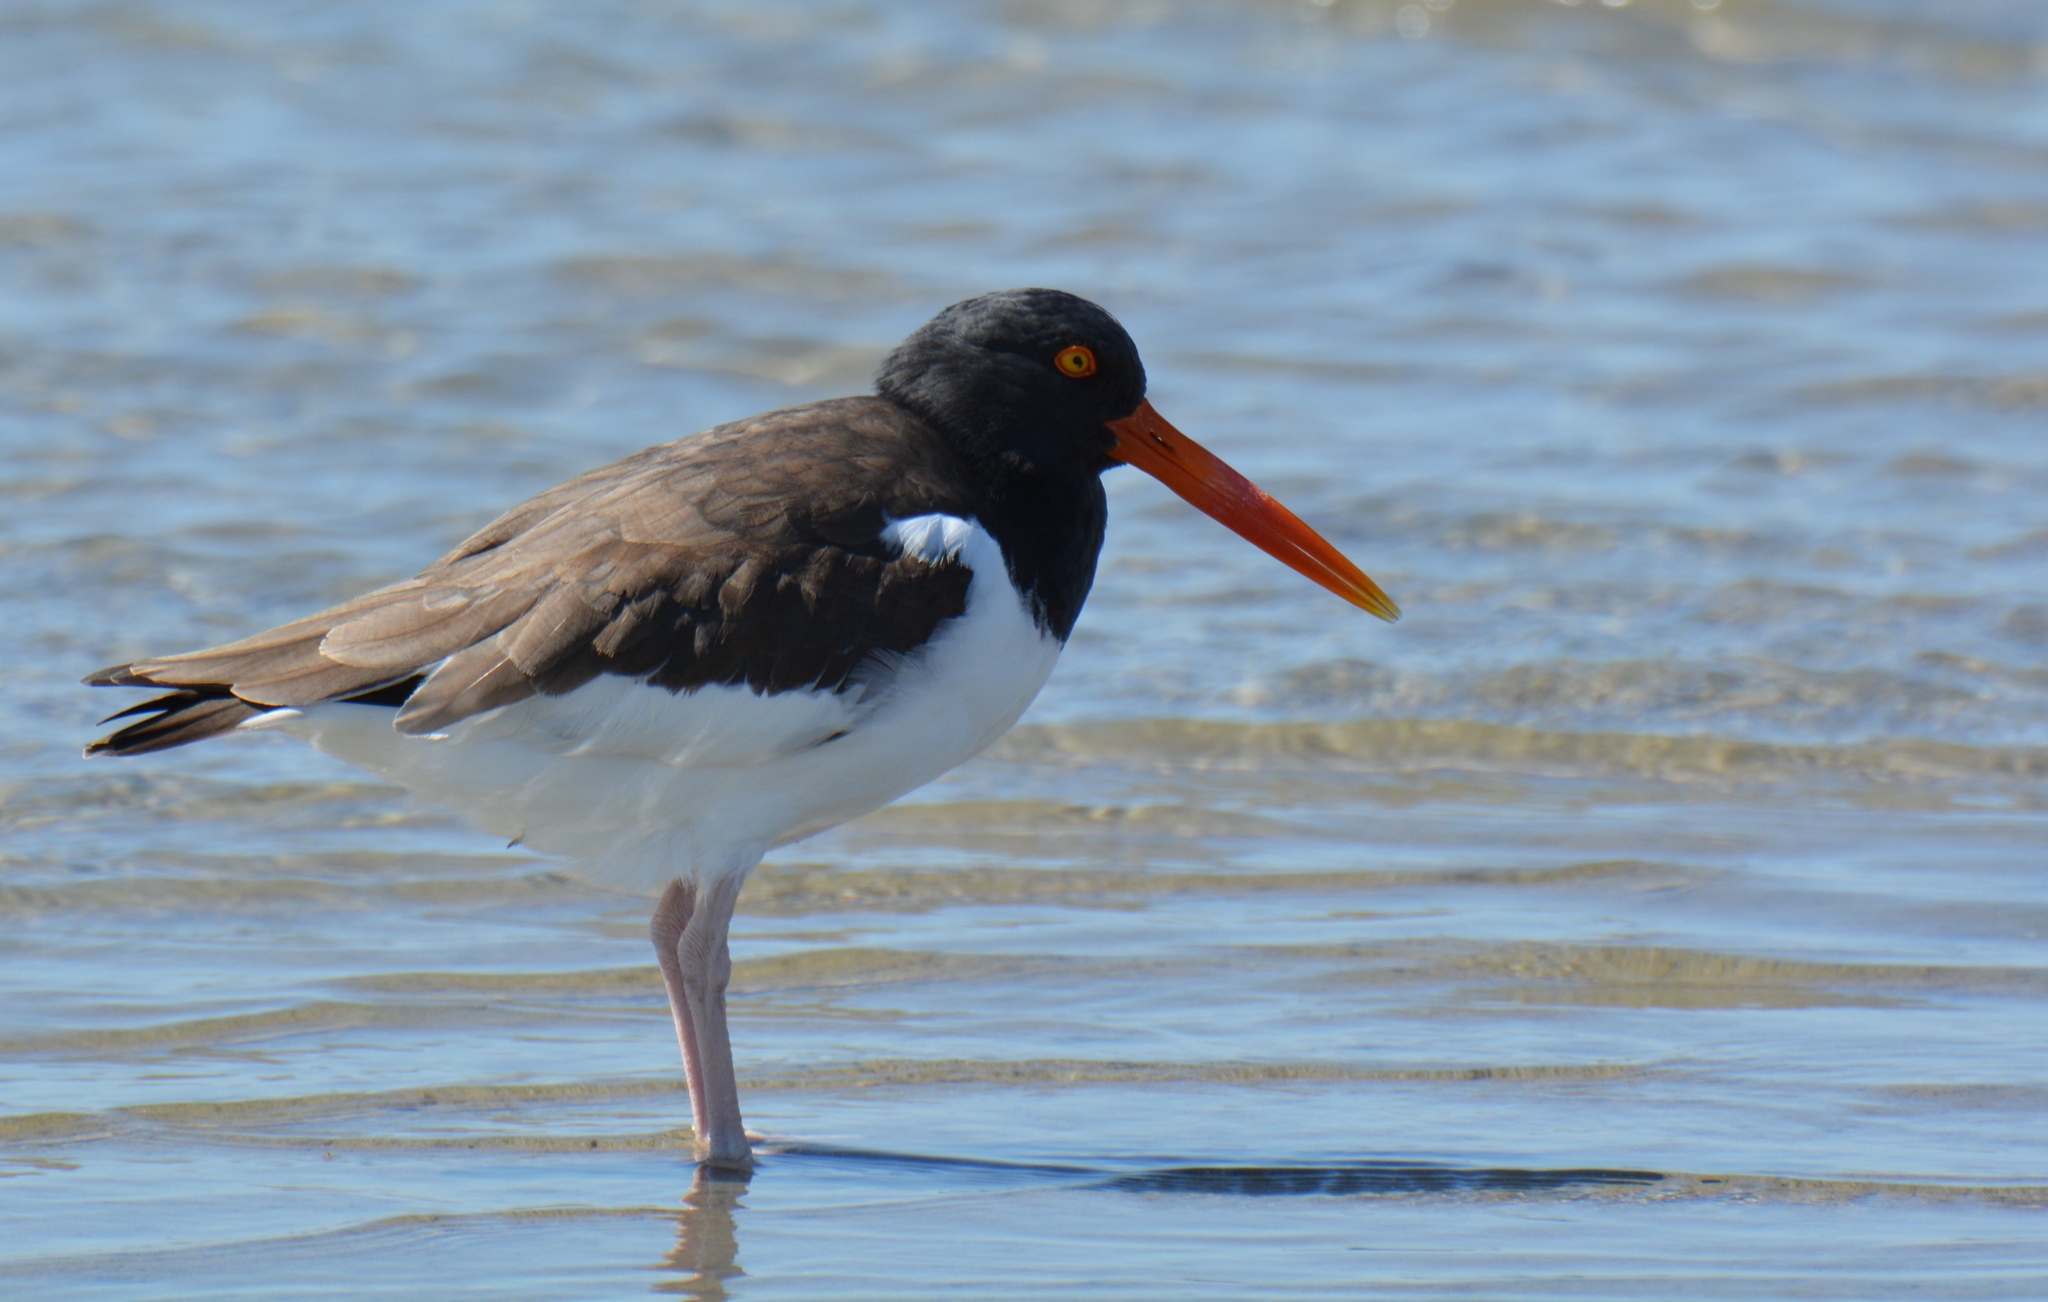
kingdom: Animalia
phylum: Chordata
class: Aves
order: Charadriiformes
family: Haematopodidae
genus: Haematopus
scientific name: Haematopus palliatus
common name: American oystercatcher
